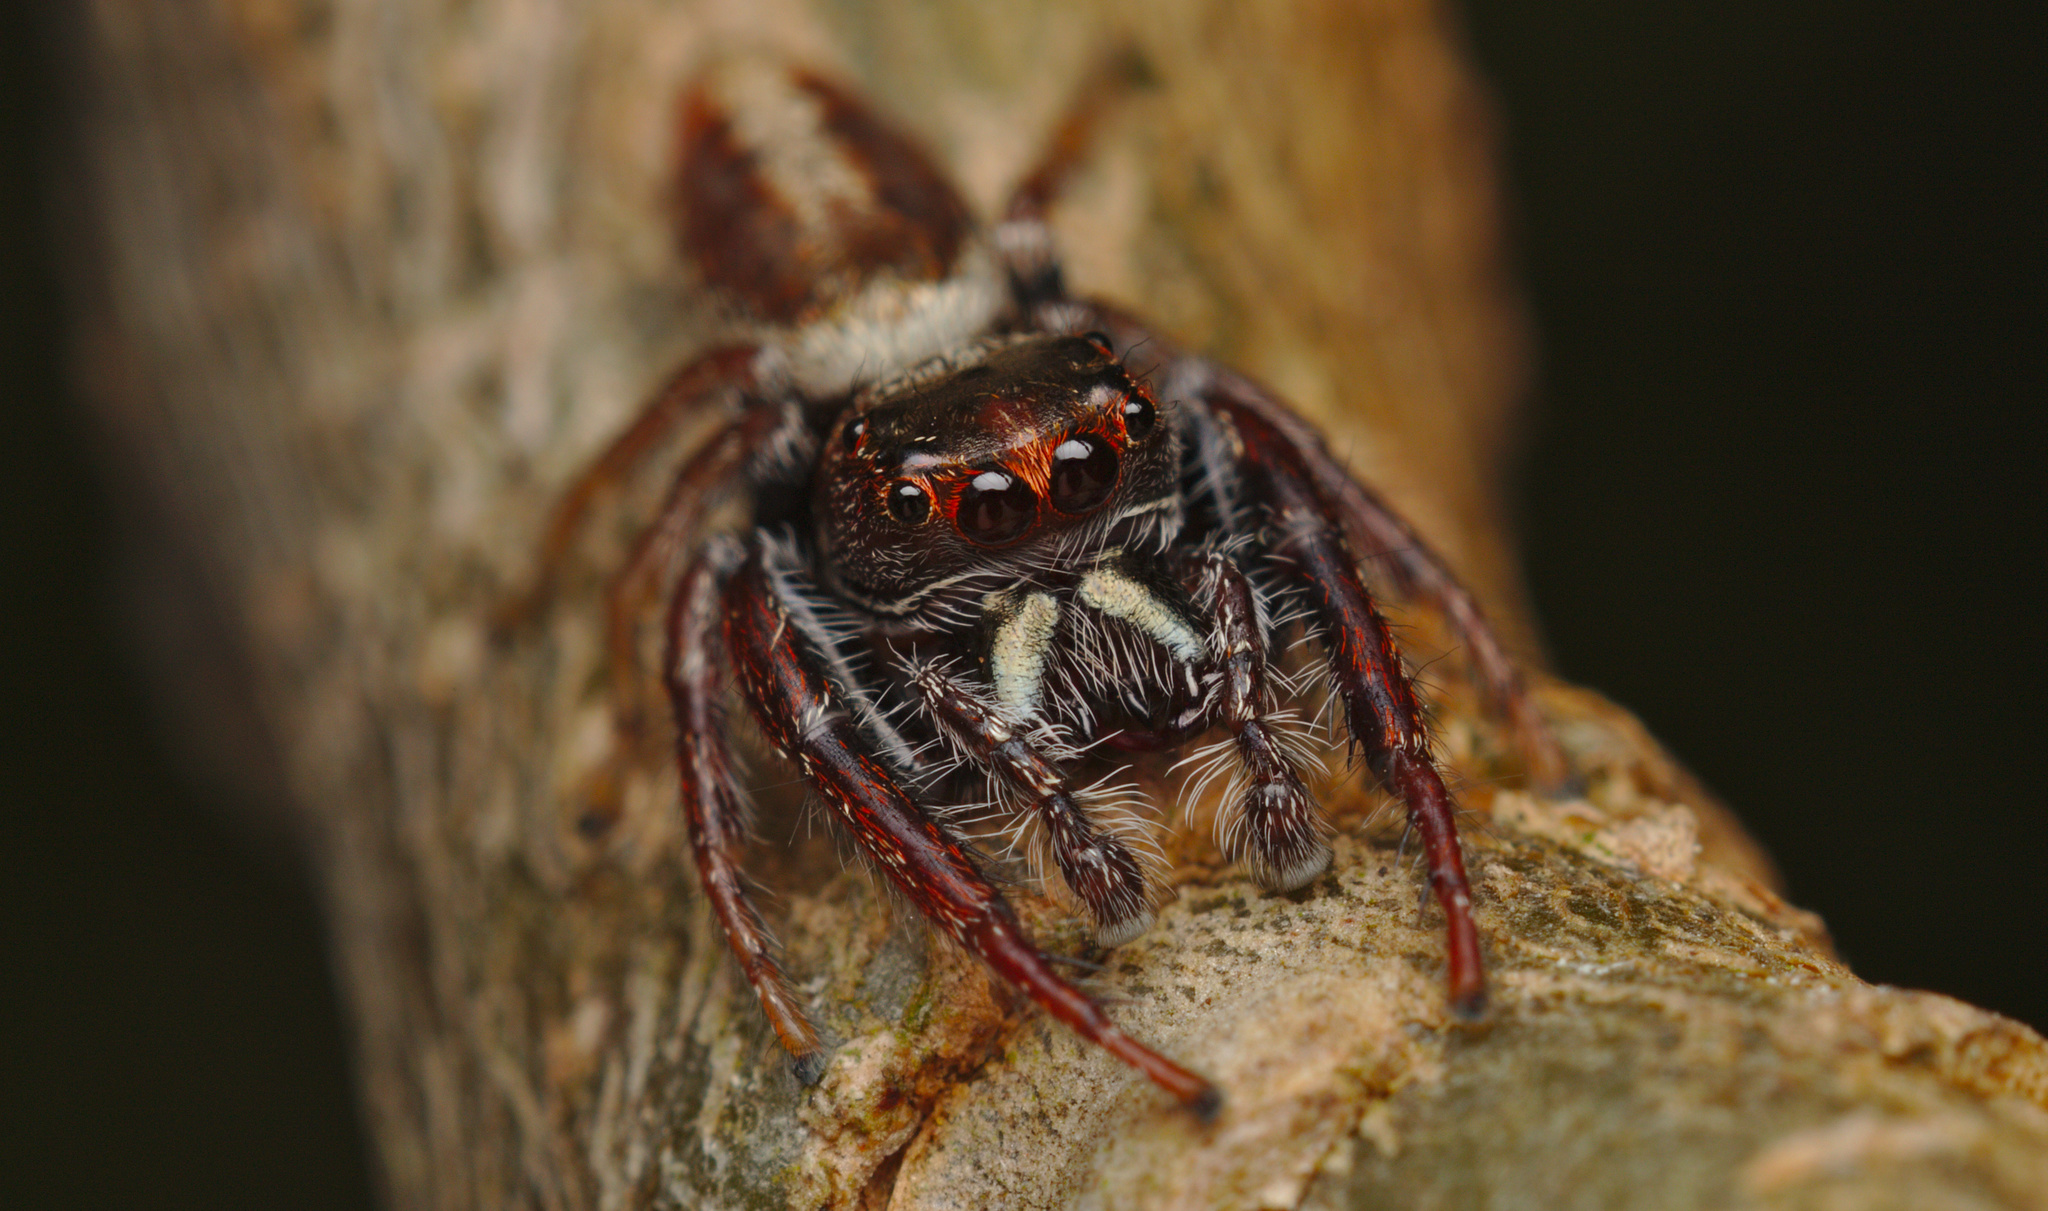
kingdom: Animalia
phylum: Arthropoda
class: Arachnida
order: Araneae
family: Salticidae
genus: Opisthoncus
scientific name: Opisthoncus polyphemus
